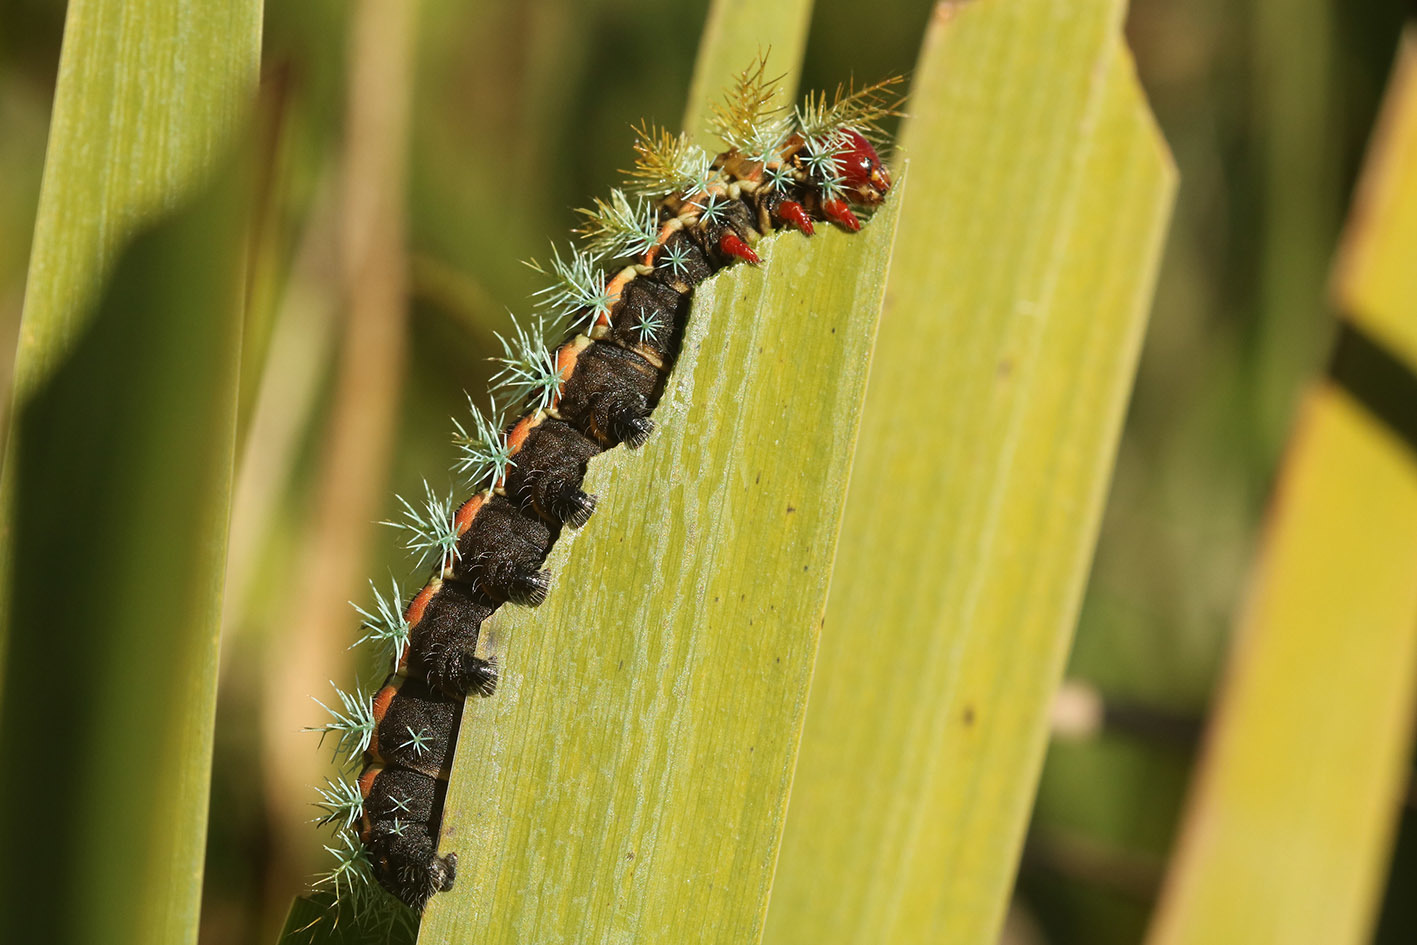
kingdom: Animalia
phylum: Arthropoda
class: Insecta
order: Lepidoptera
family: Saturniidae
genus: Pseudautomeris
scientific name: Pseudautomeris grammivora
